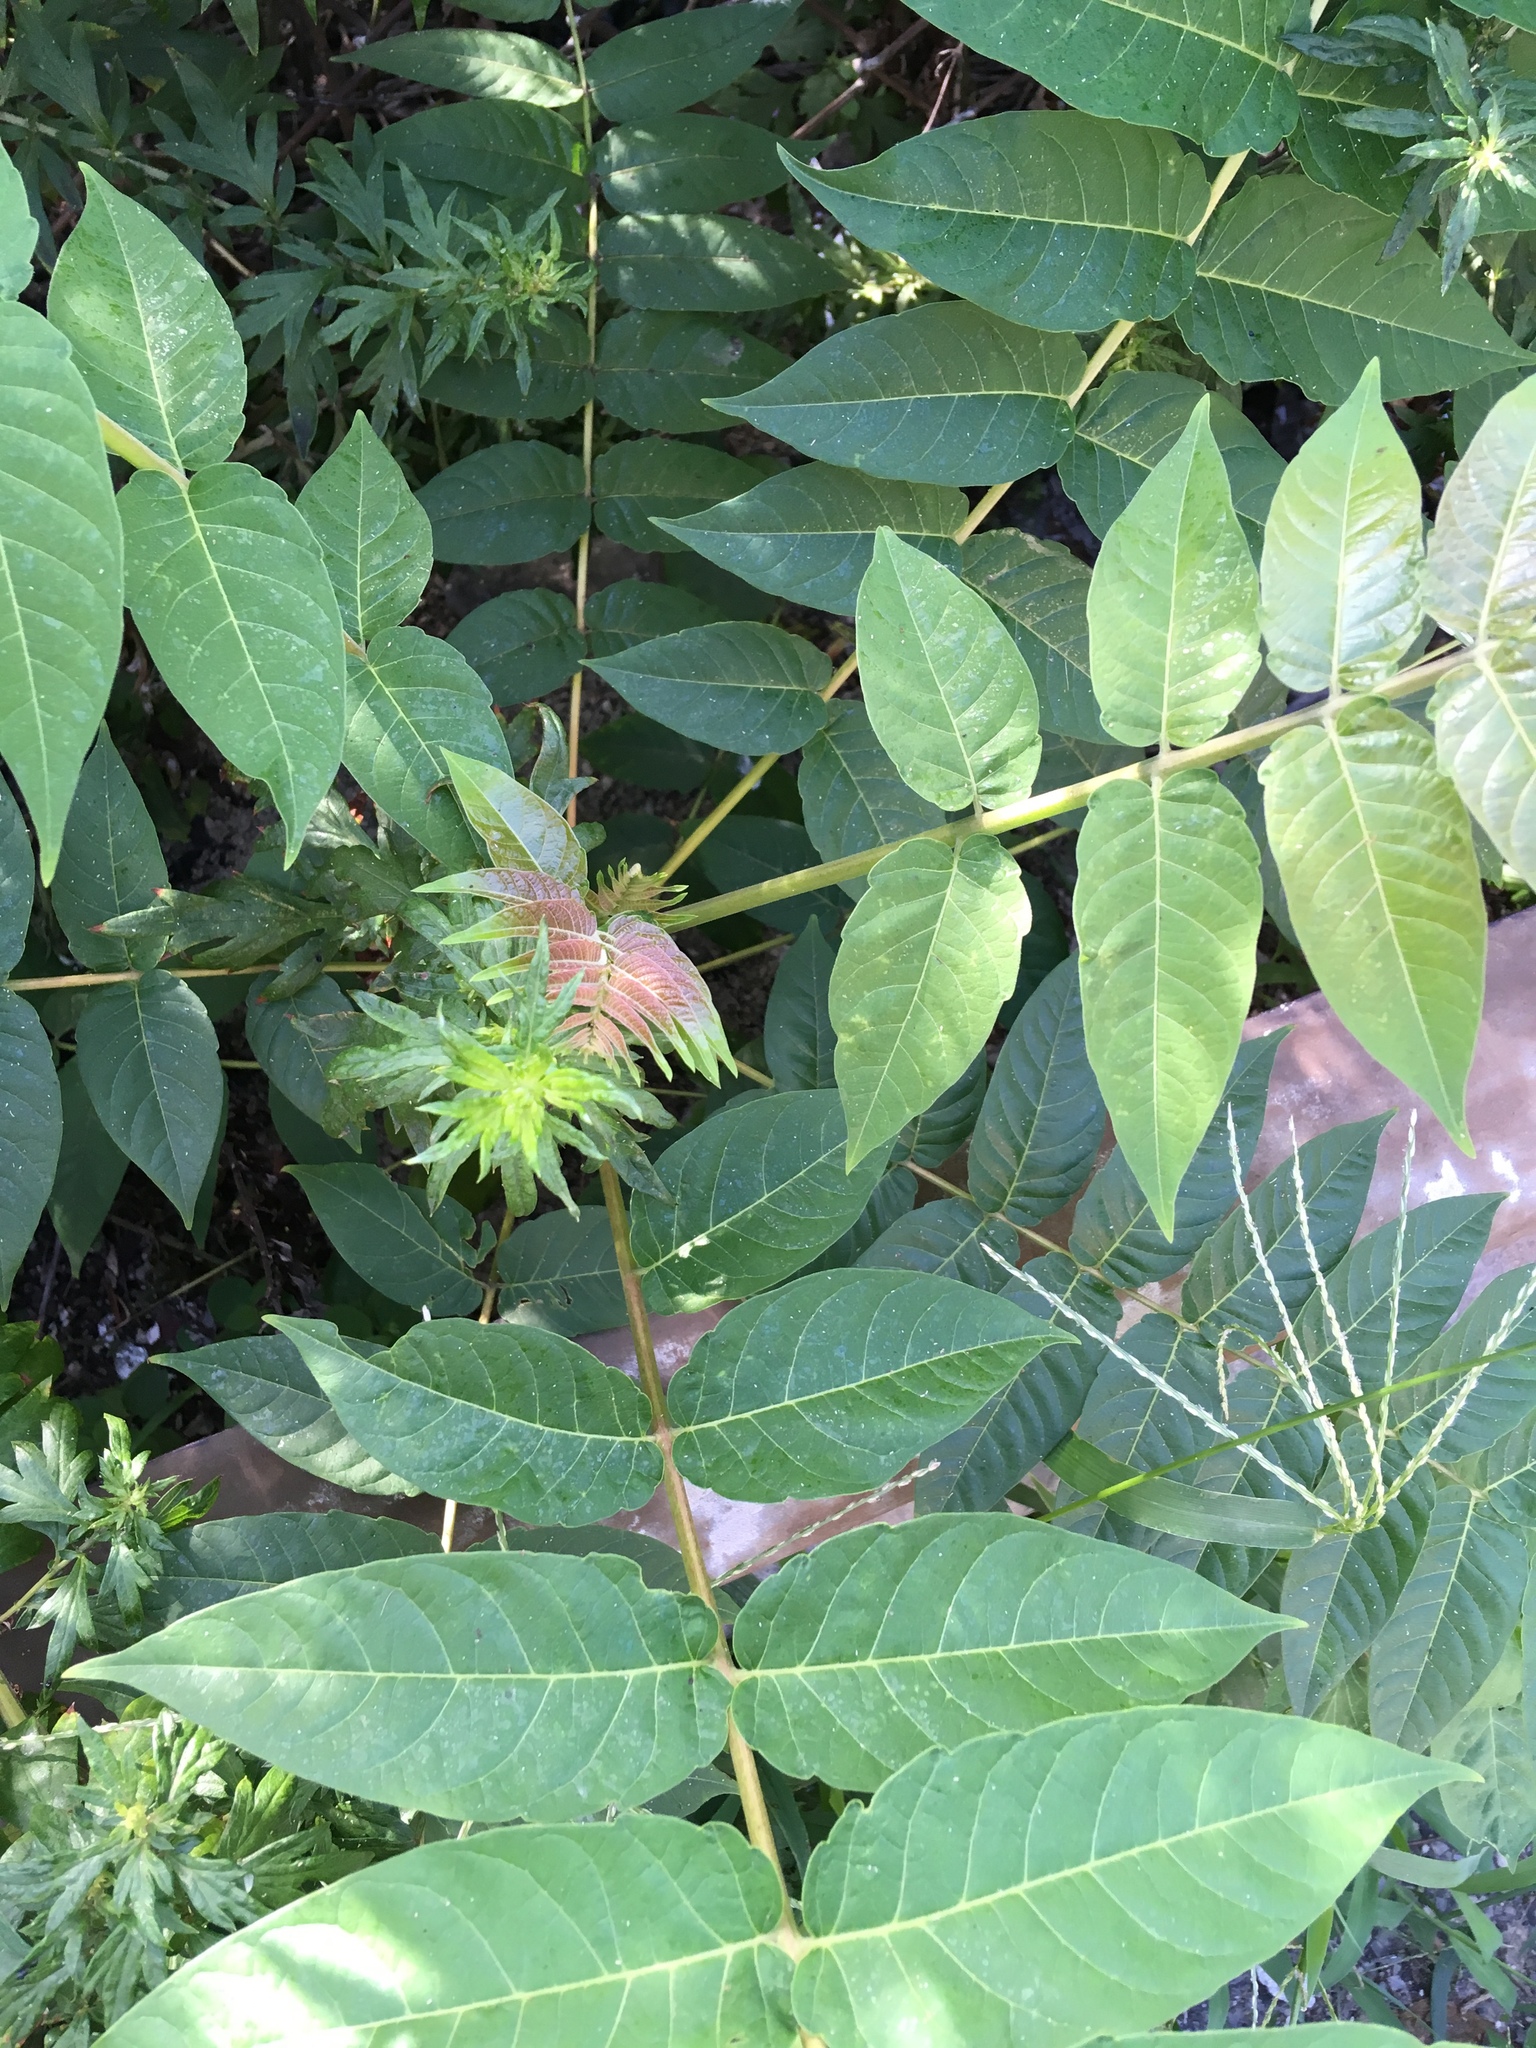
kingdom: Plantae
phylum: Tracheophyta
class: Magnoliopsida
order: Sapindales
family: Simaroubaceae
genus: Ailanthus
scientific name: Ailanthus altissima
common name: Tree-of-heaven
